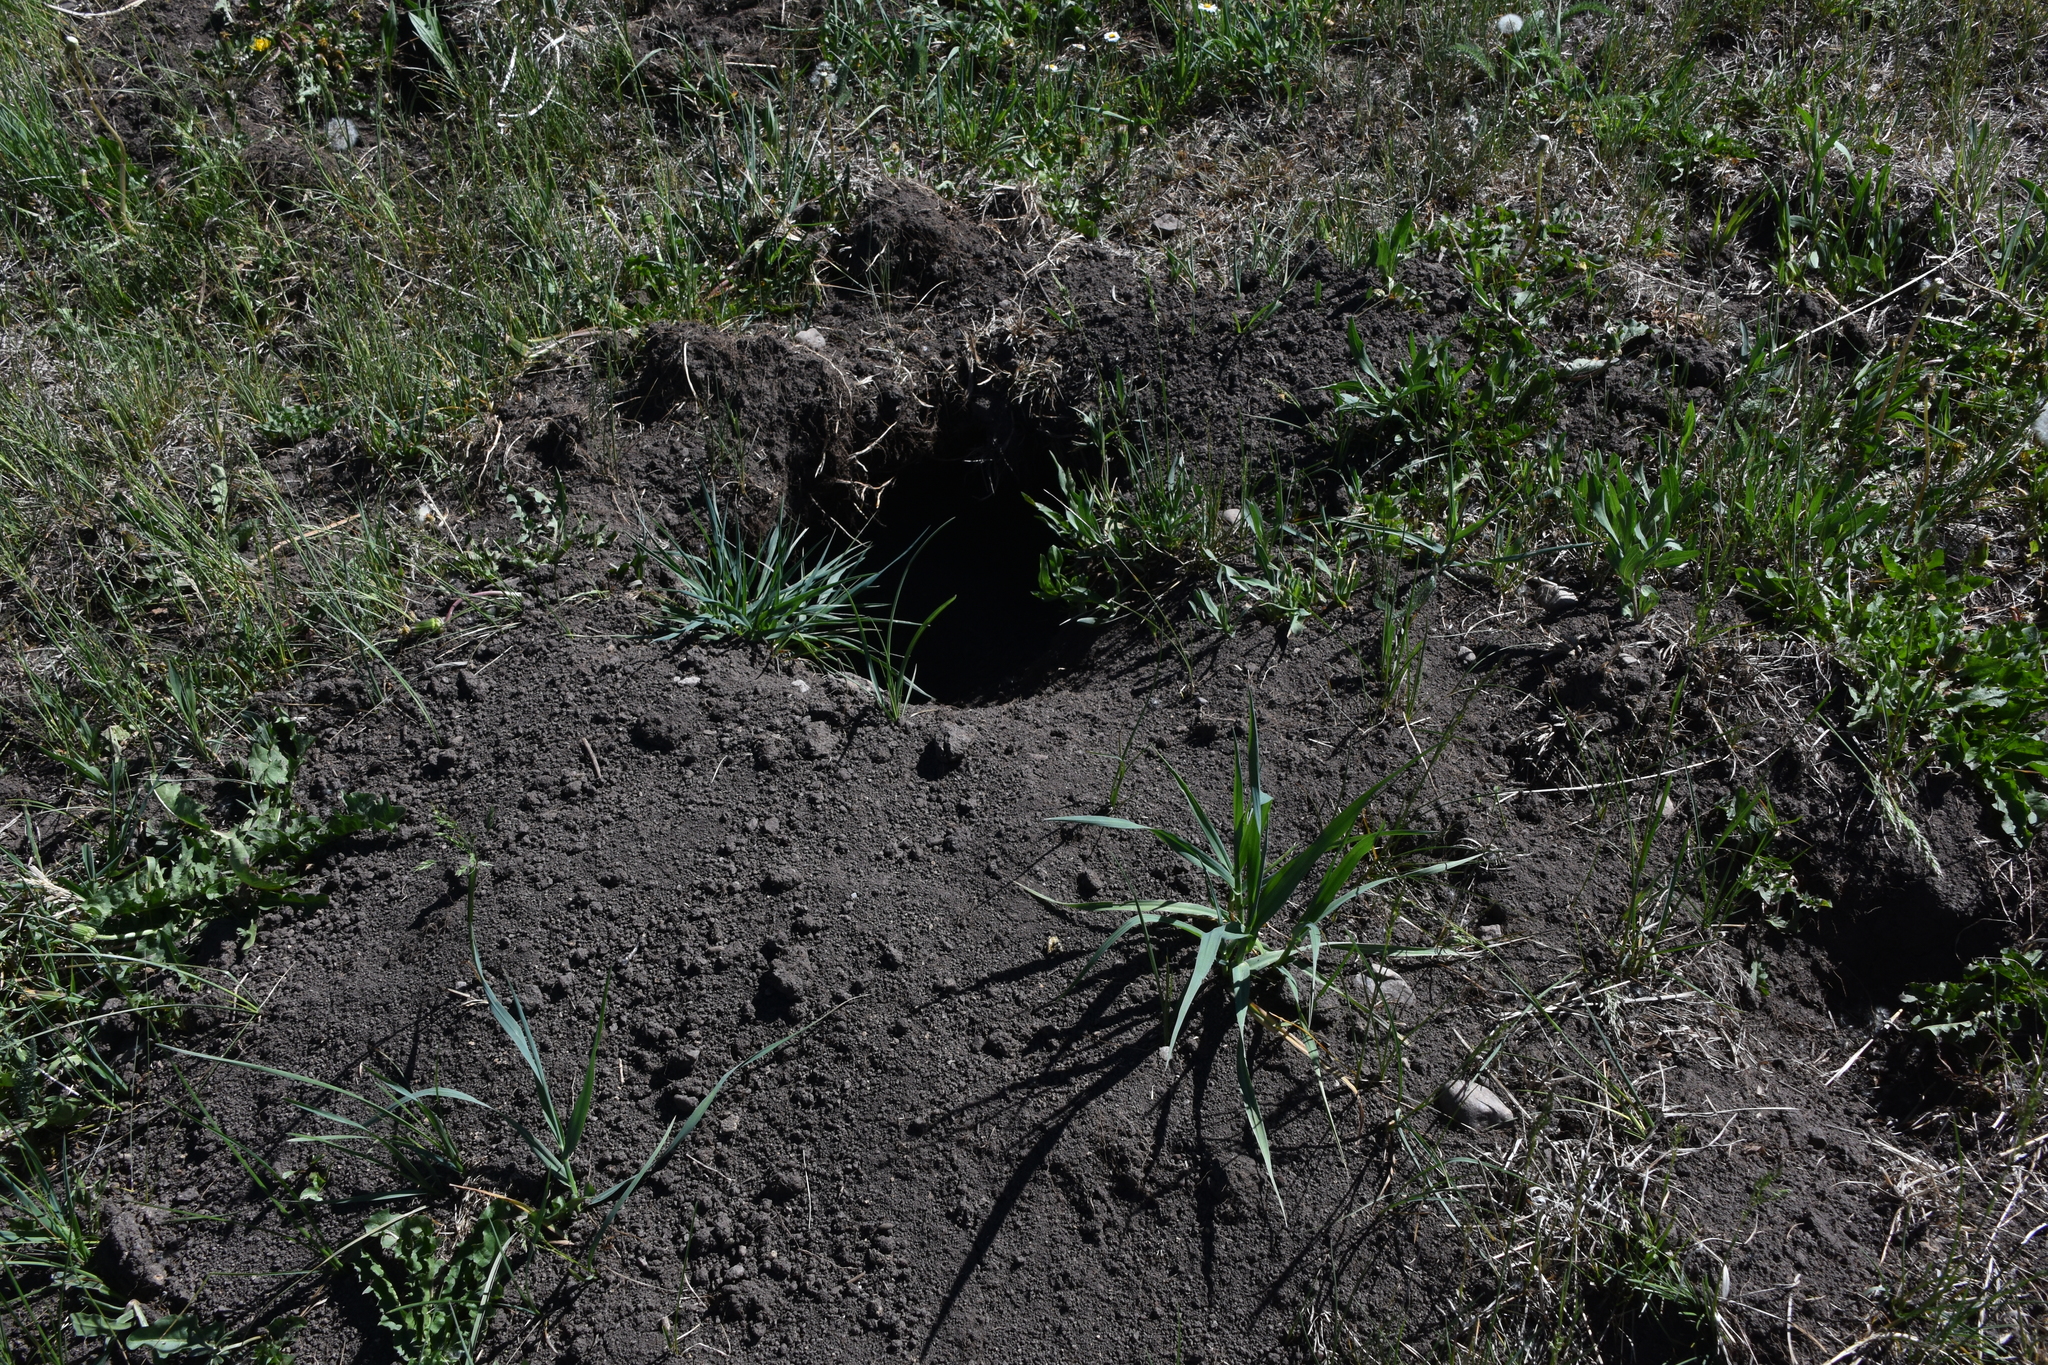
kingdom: Animalia
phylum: Chordata
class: Mammalia
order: Rodentia
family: Sciuridae
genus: Cynomys
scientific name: Cynomys gunnisoni
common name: Gunnison's prairie dog
